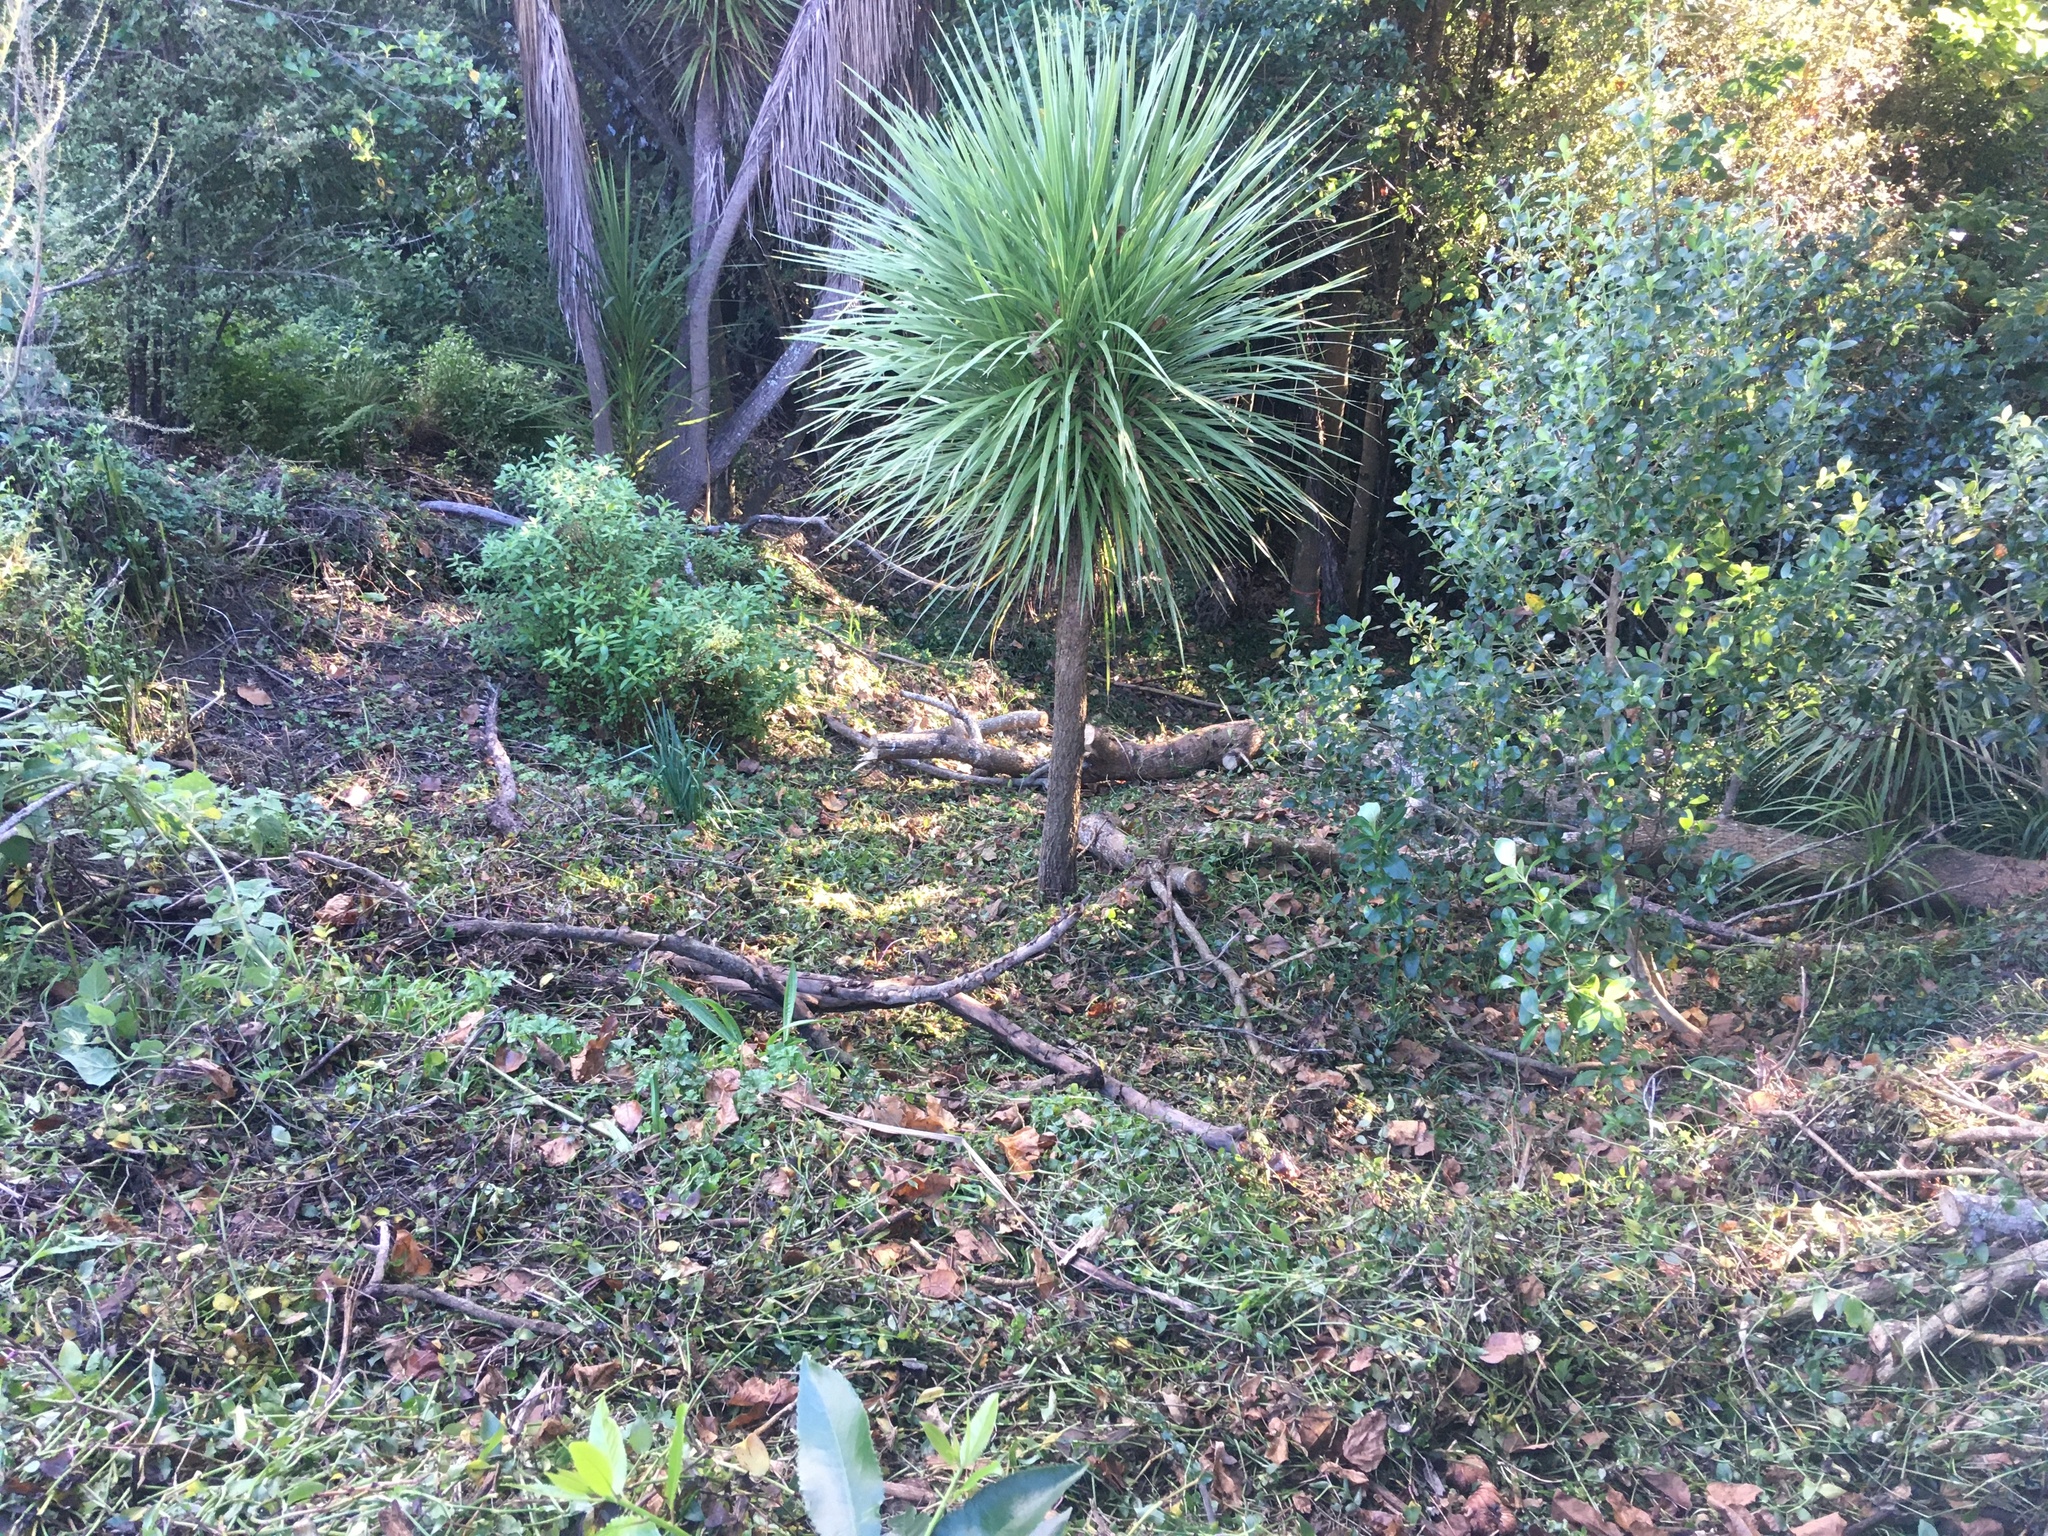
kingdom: Plantae
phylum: Tracheophyta
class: Liliopsida
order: Asparagales
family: Asparagaceae
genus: Cordyline
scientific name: Cordyline australis
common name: Cabbage-palm
